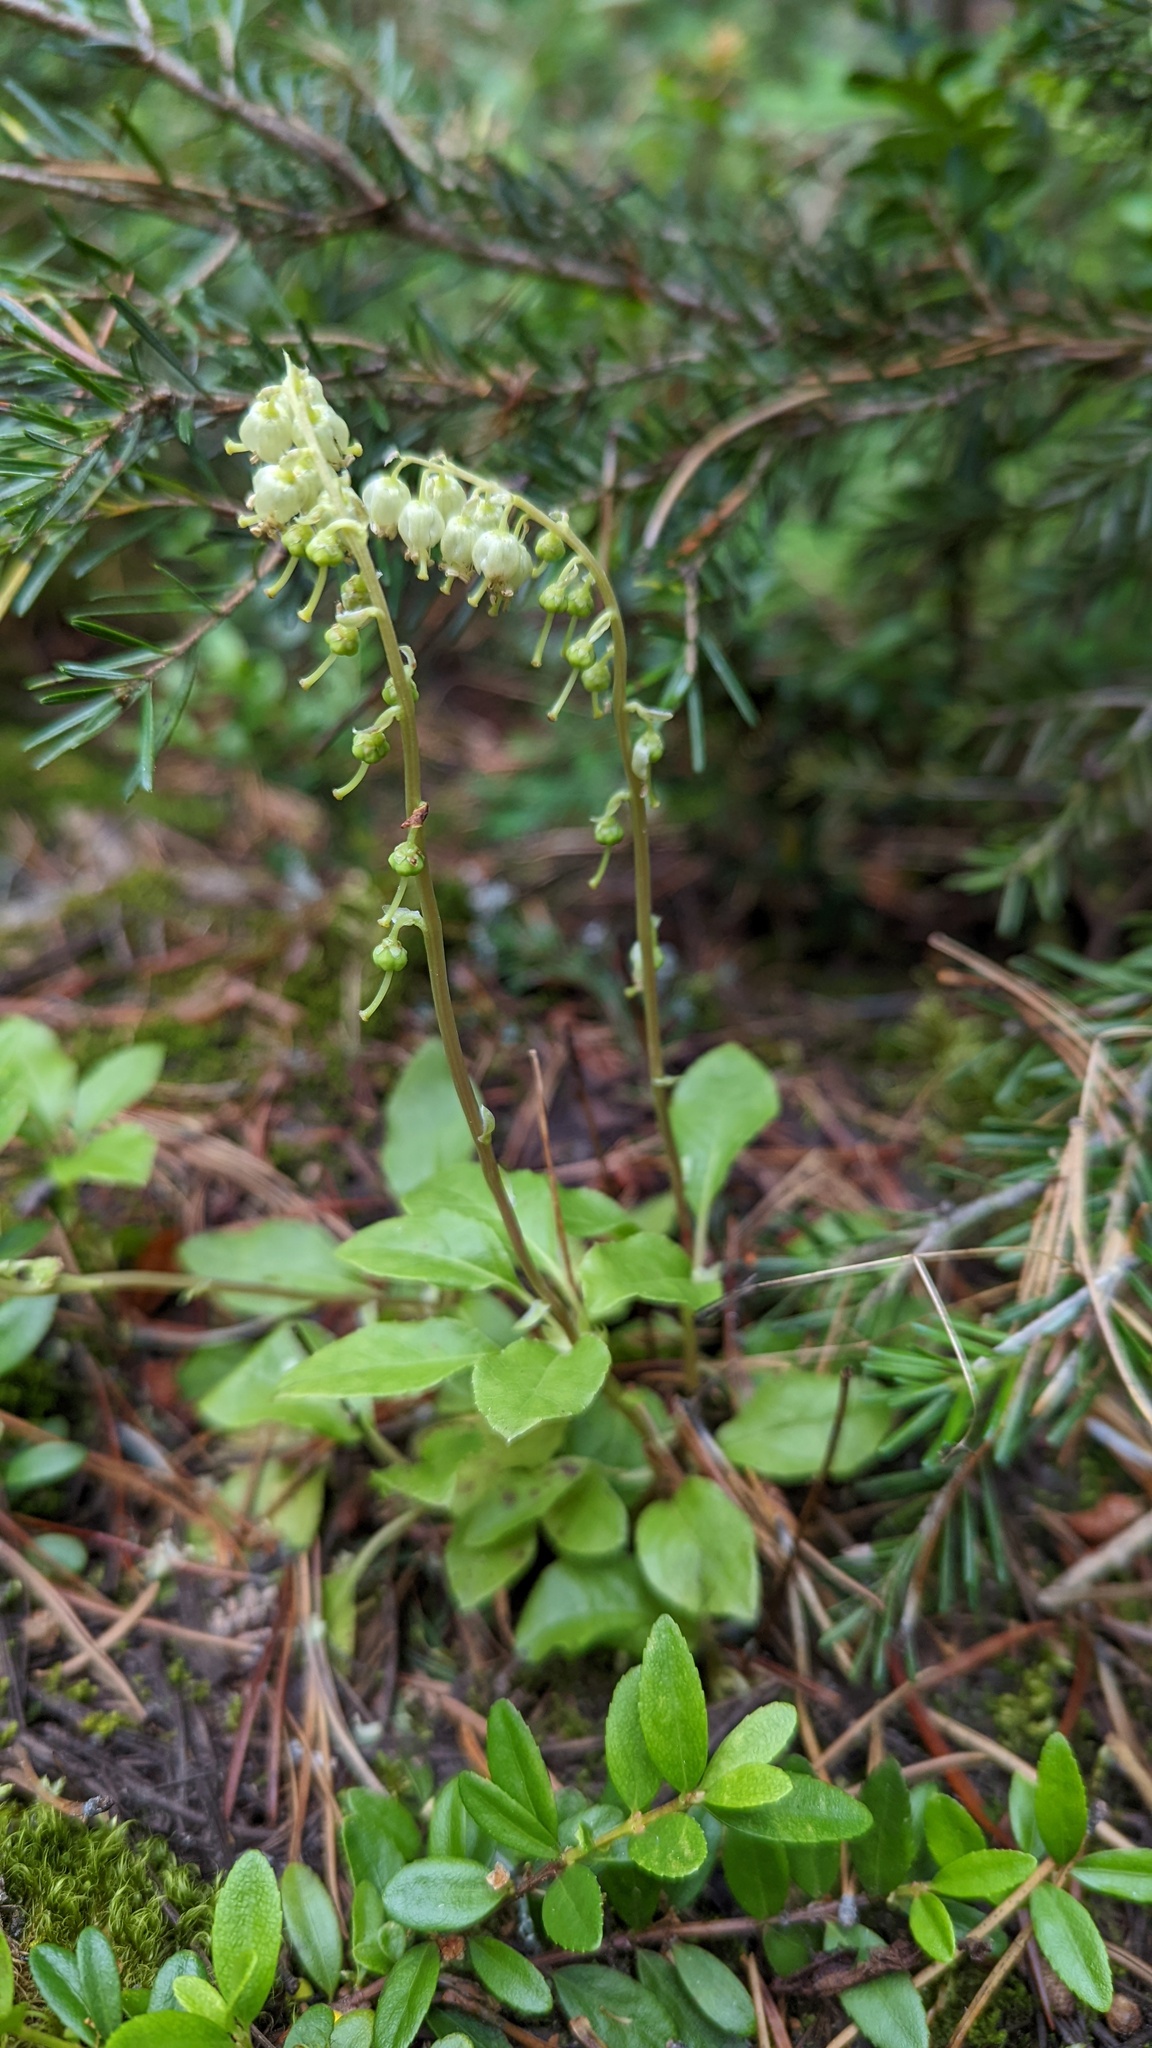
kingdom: Plantae
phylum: Tracheophyta
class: Magnoliopsida
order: Ericales
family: Ericaceae
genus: Orthilia
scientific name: Orthilia secunda
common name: One-sided orthilia
